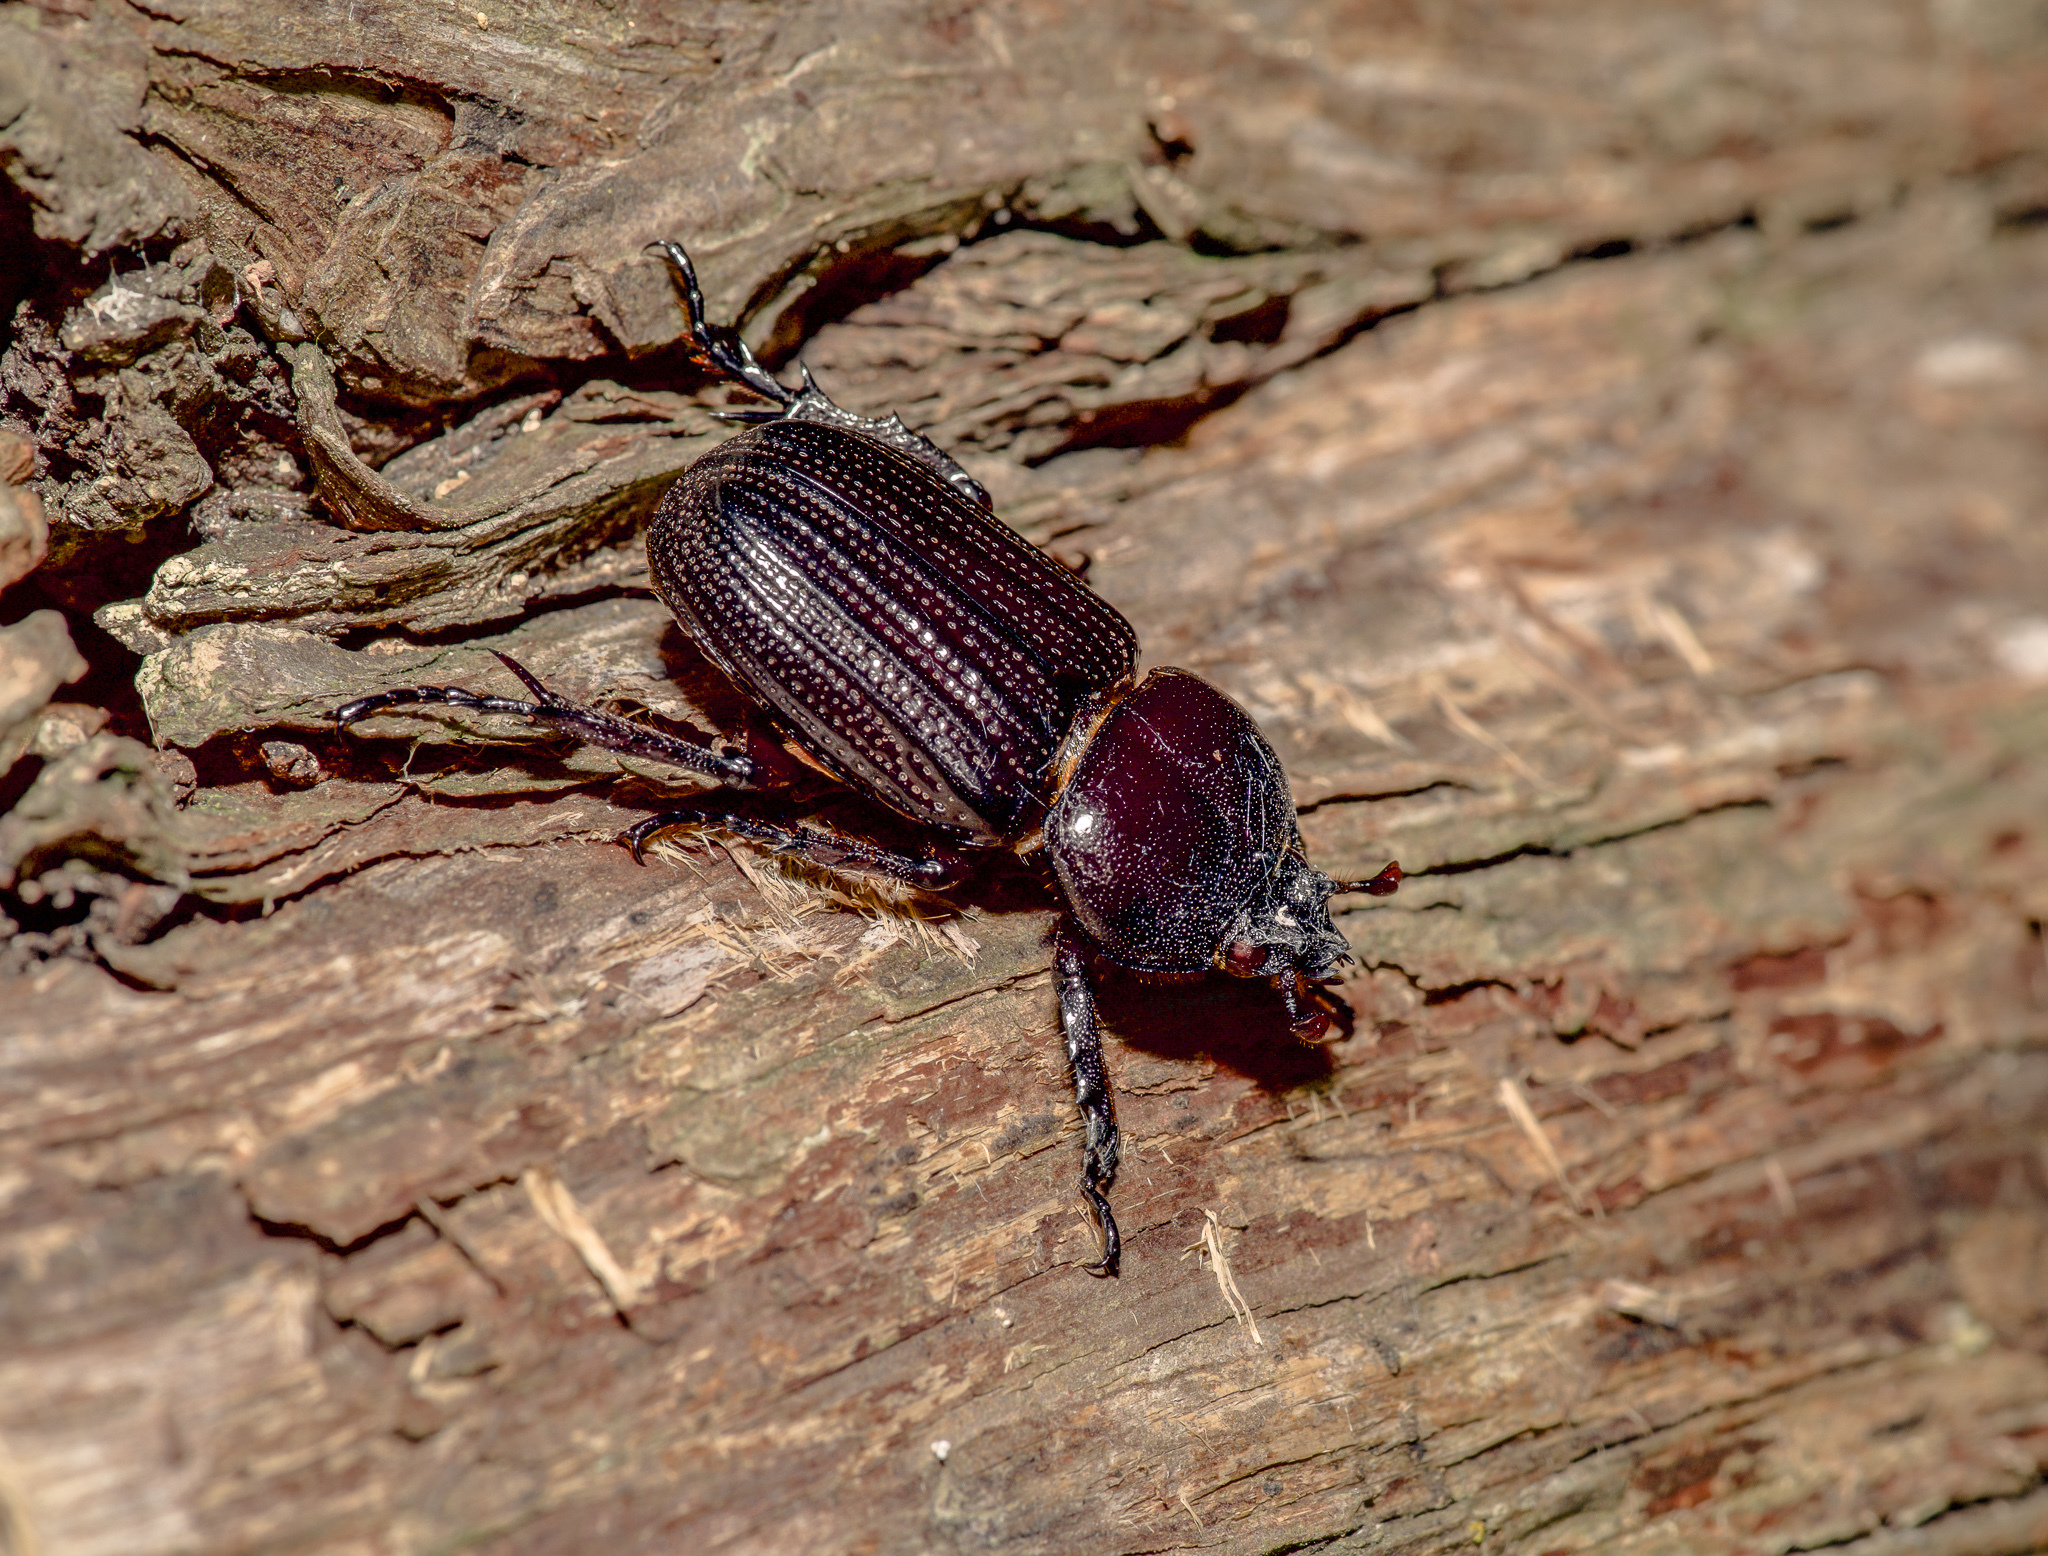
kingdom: Animalia
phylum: Arthropoda
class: Insecta
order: Coleoptera
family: Scarabaeidae
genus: Phileurus
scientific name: Phileurus valgus
